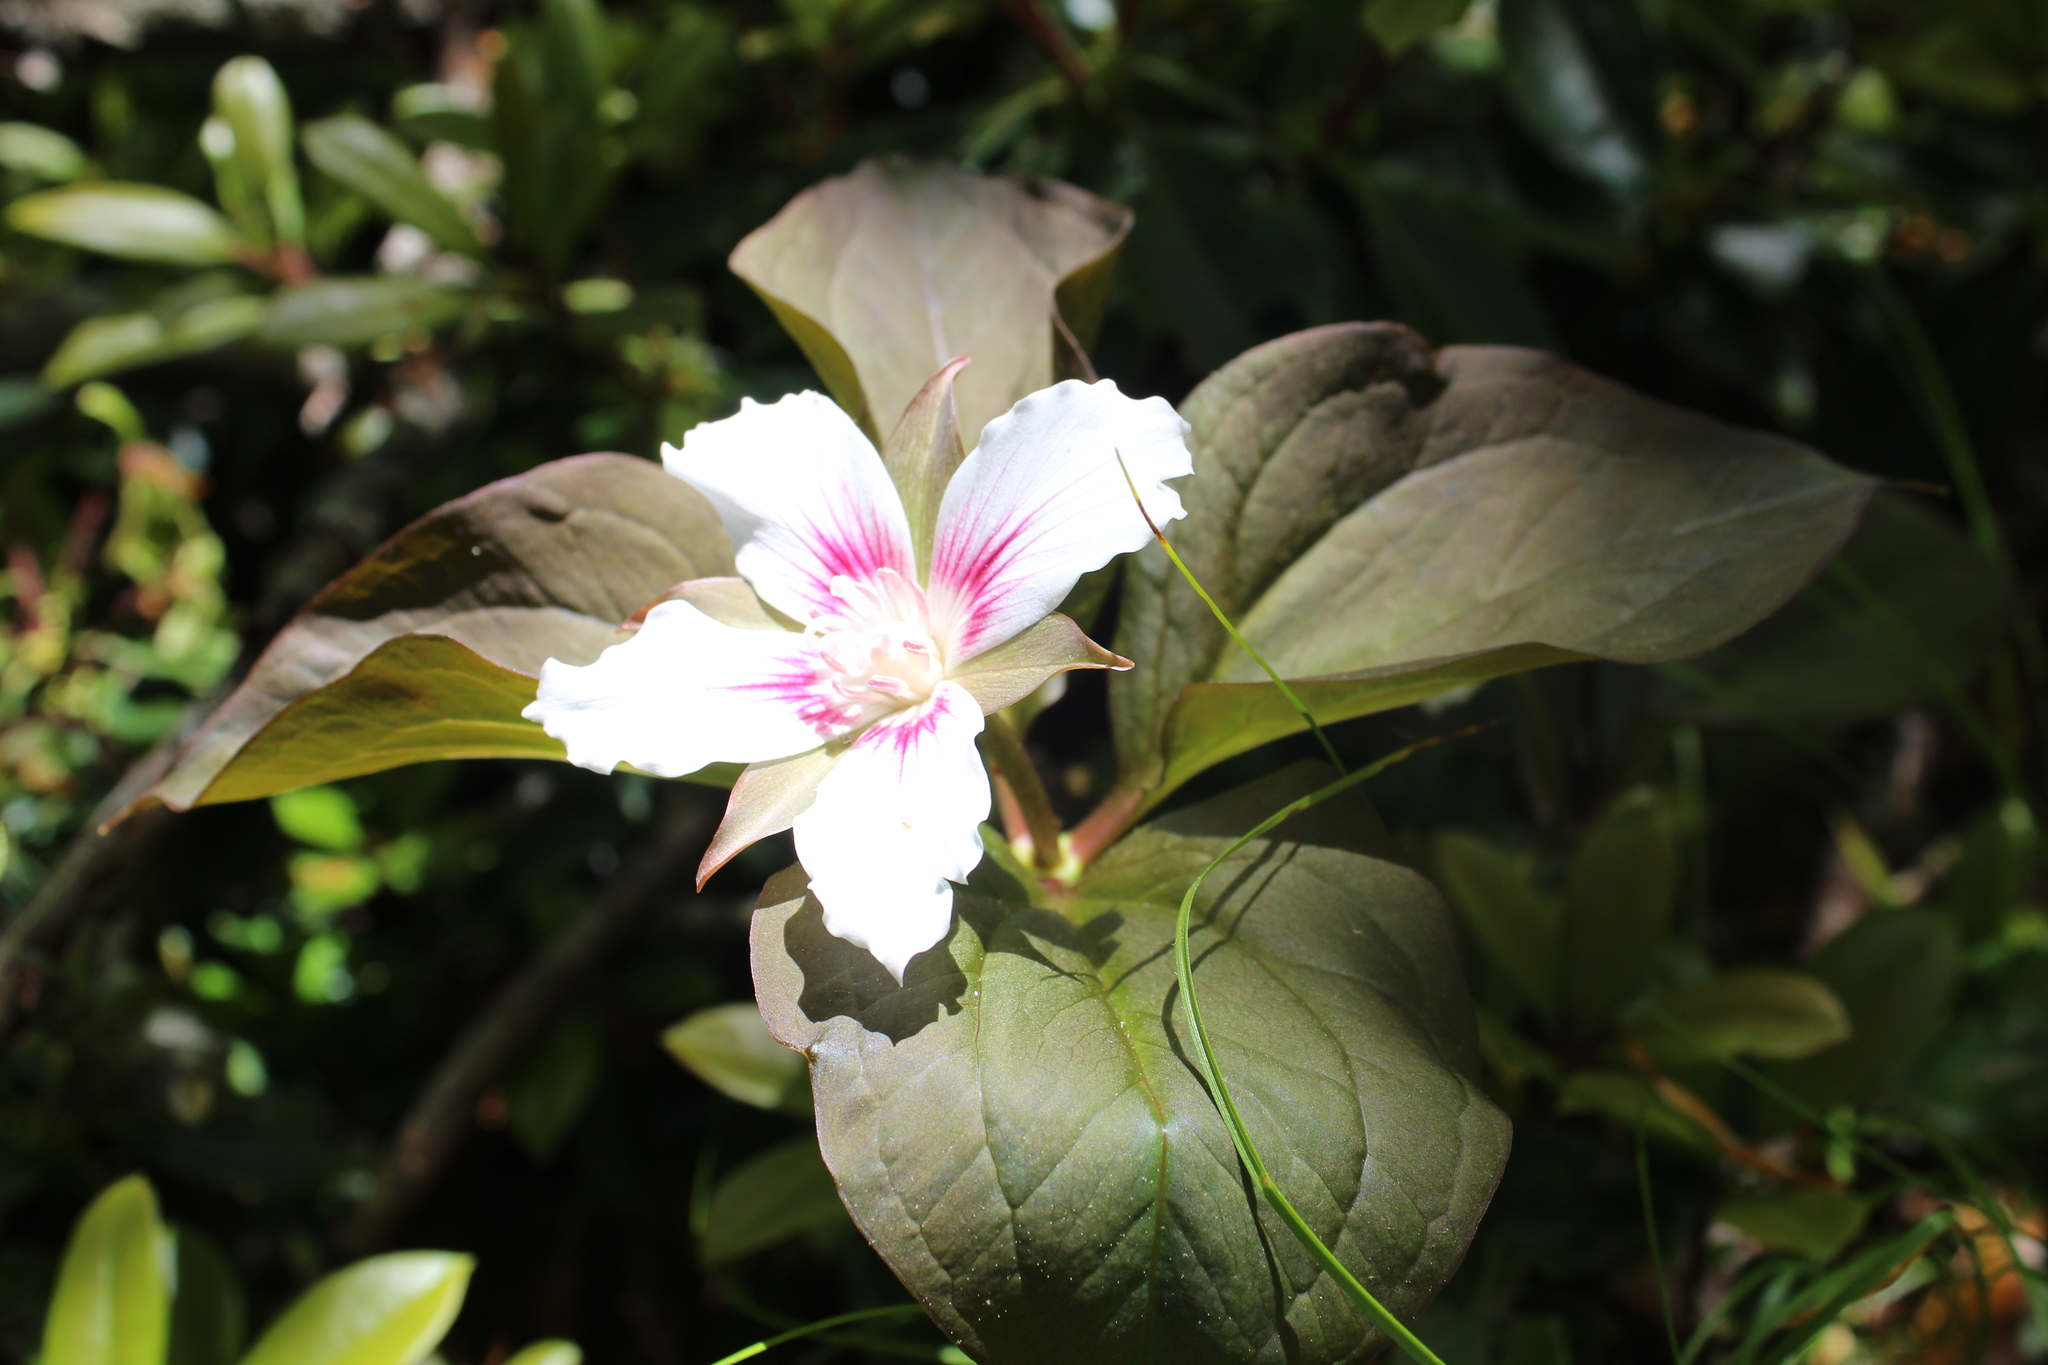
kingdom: Plantae
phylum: Tracheophyta
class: Liliopsida
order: Liliales
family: Melanthiaceae
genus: Trillium
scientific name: Trillium undulatum
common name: Paint trillium
